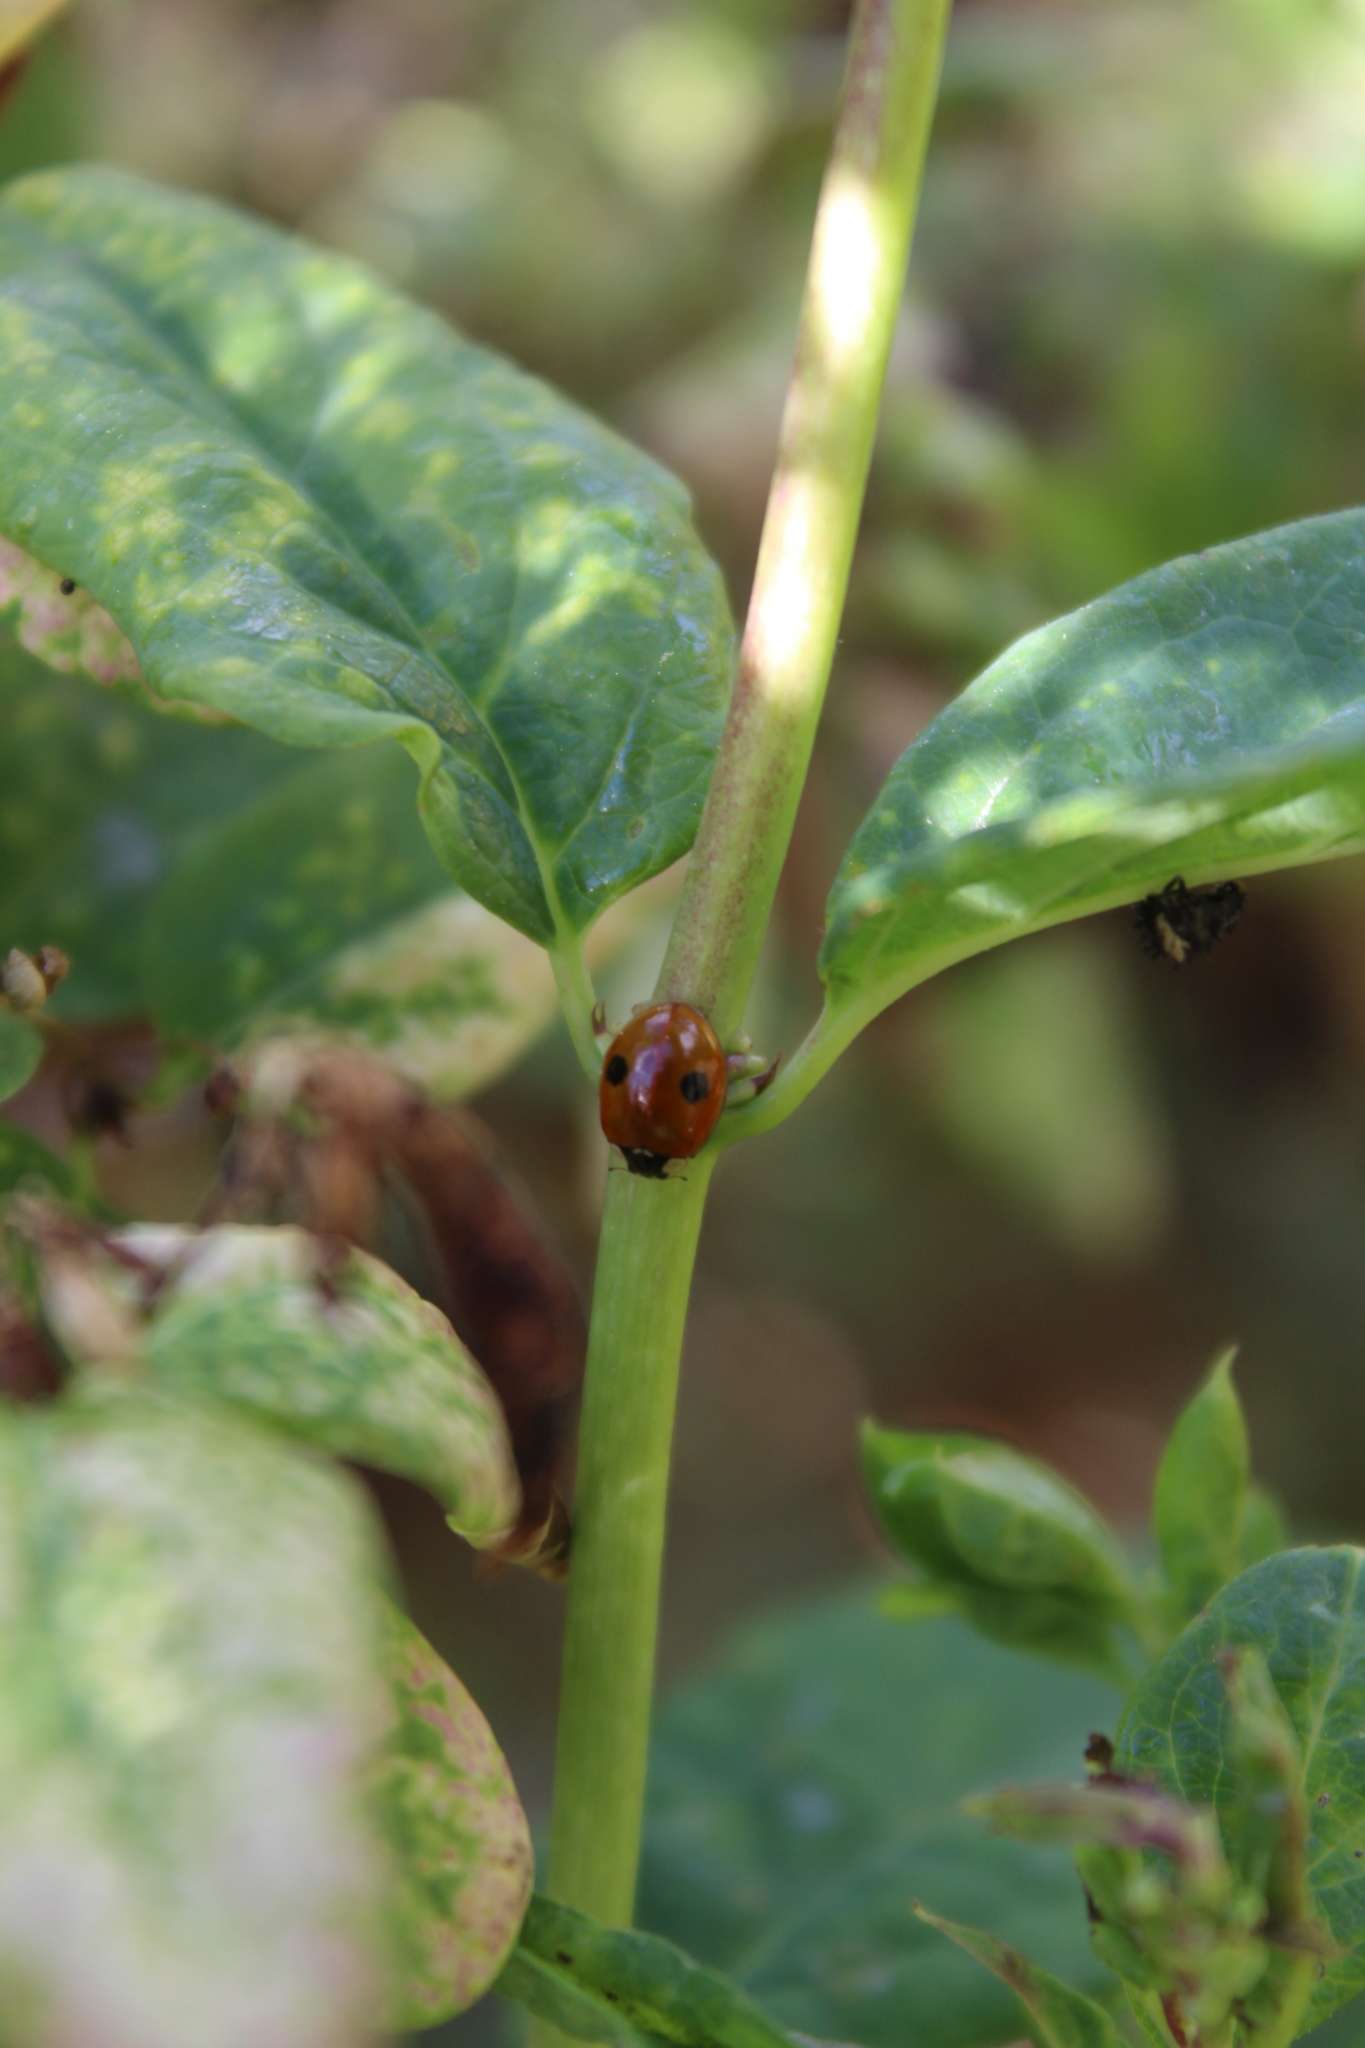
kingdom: Animalia
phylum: Arthropoda
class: Insecta
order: Coleoptera
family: Coccinellidae
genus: Adalia
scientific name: Adalia bipunctata
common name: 2-spot ladybird
